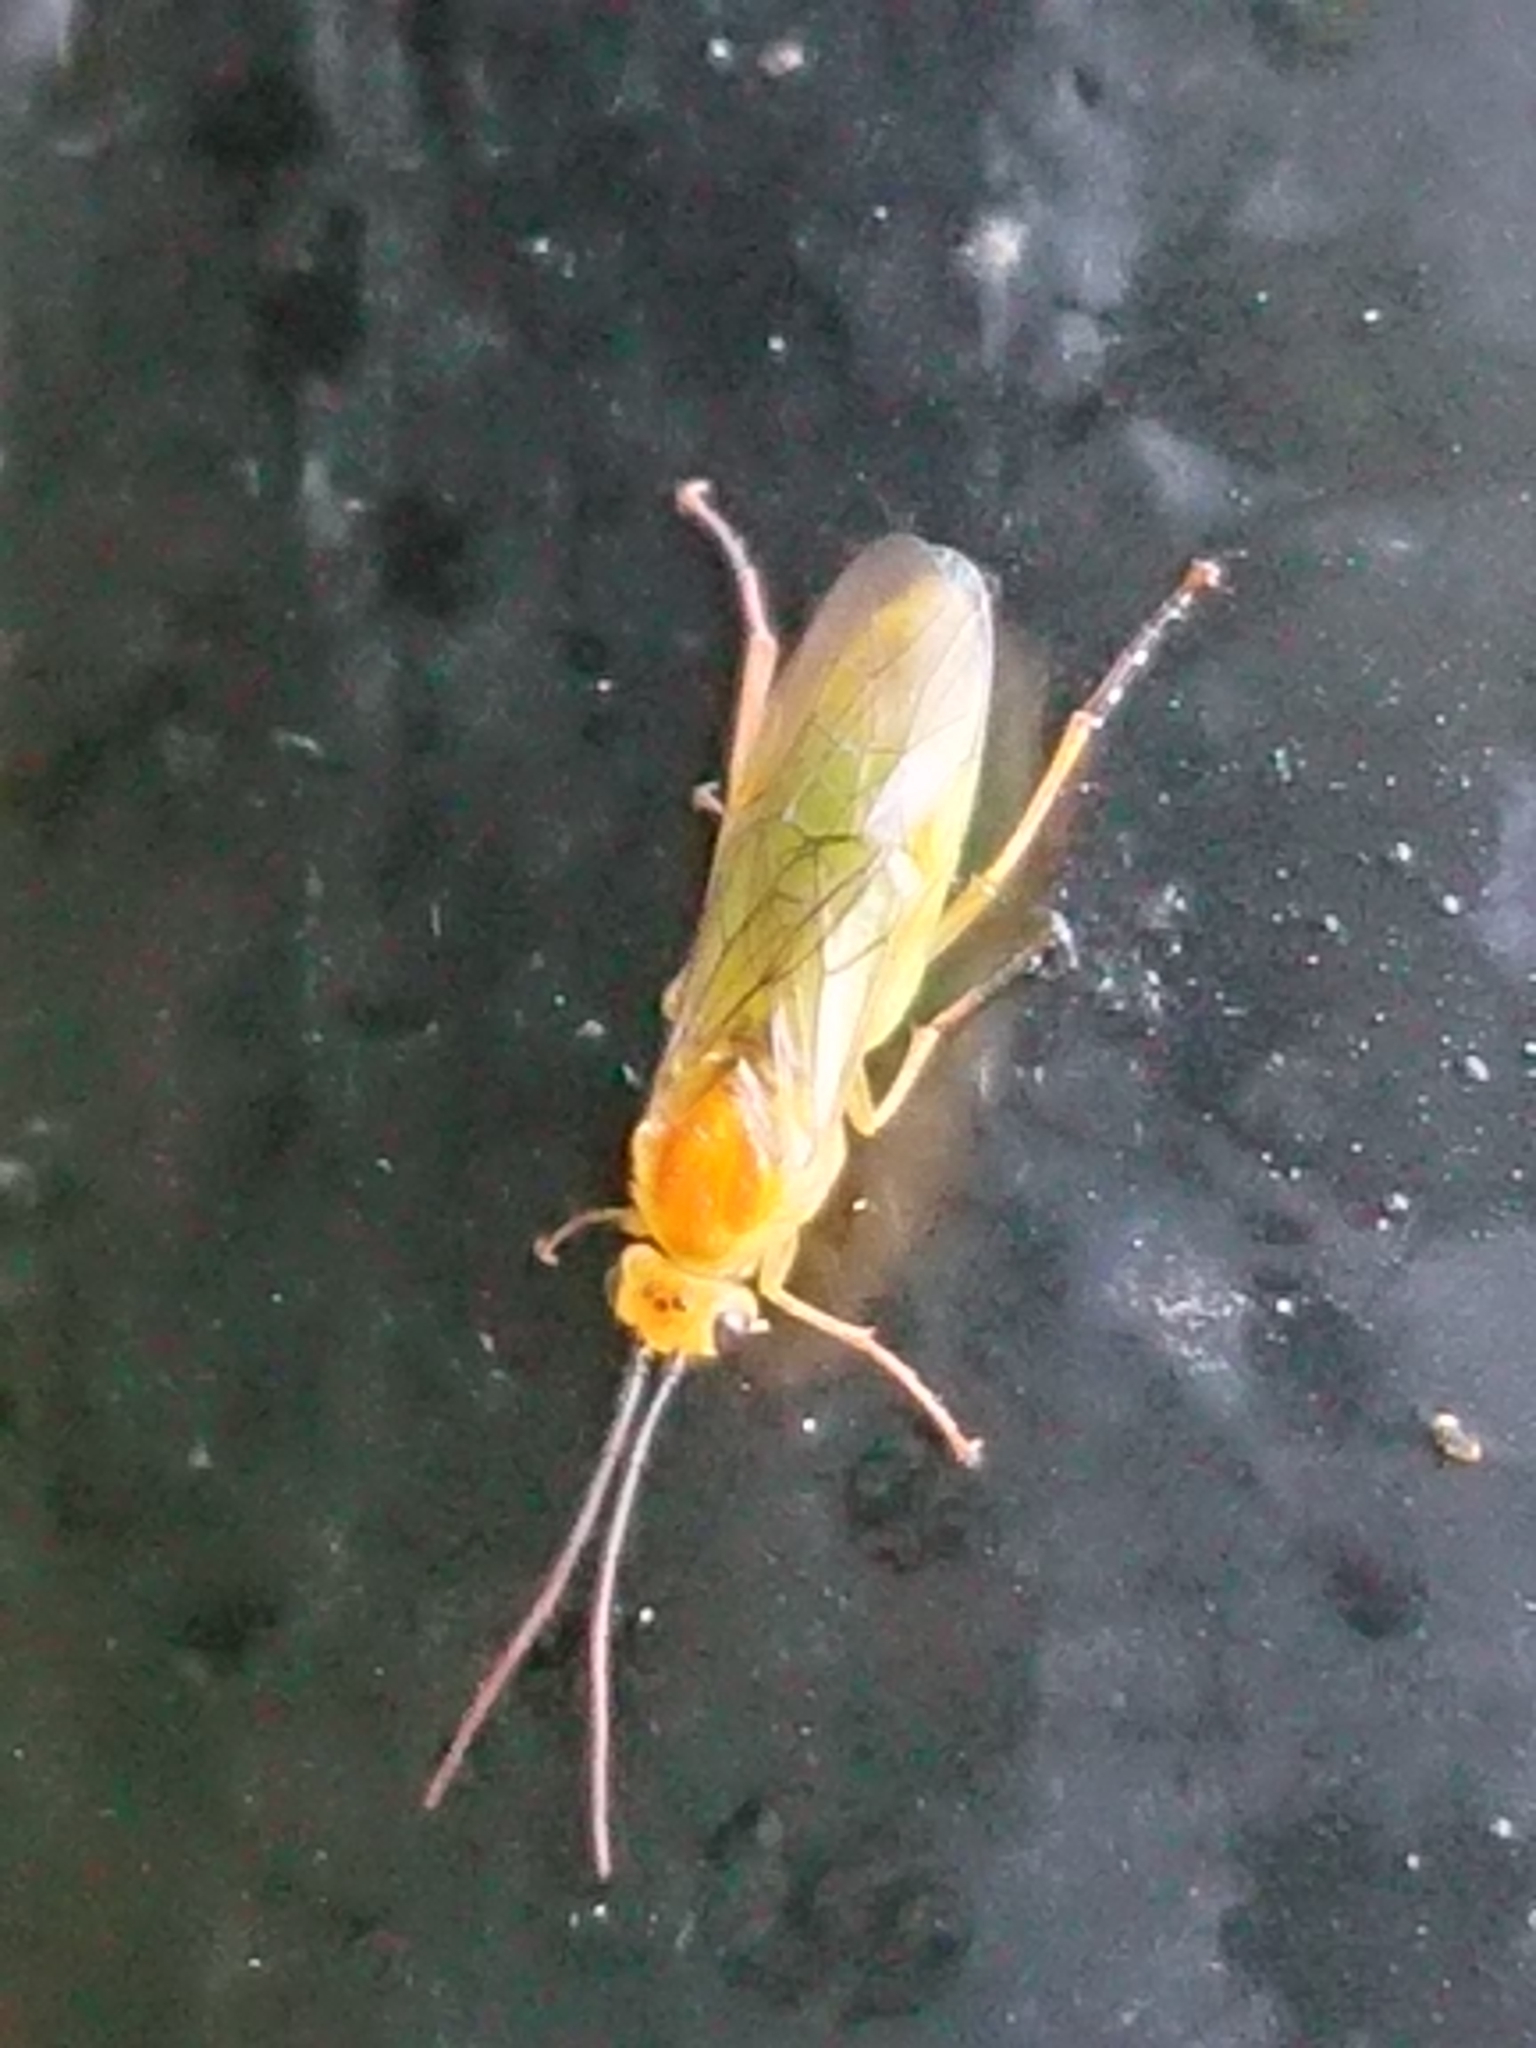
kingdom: Animalia
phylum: Arthropoda
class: Insecta
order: Hymenoptera
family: Tenthredinidae
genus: Nematus
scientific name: Nematus respondens
